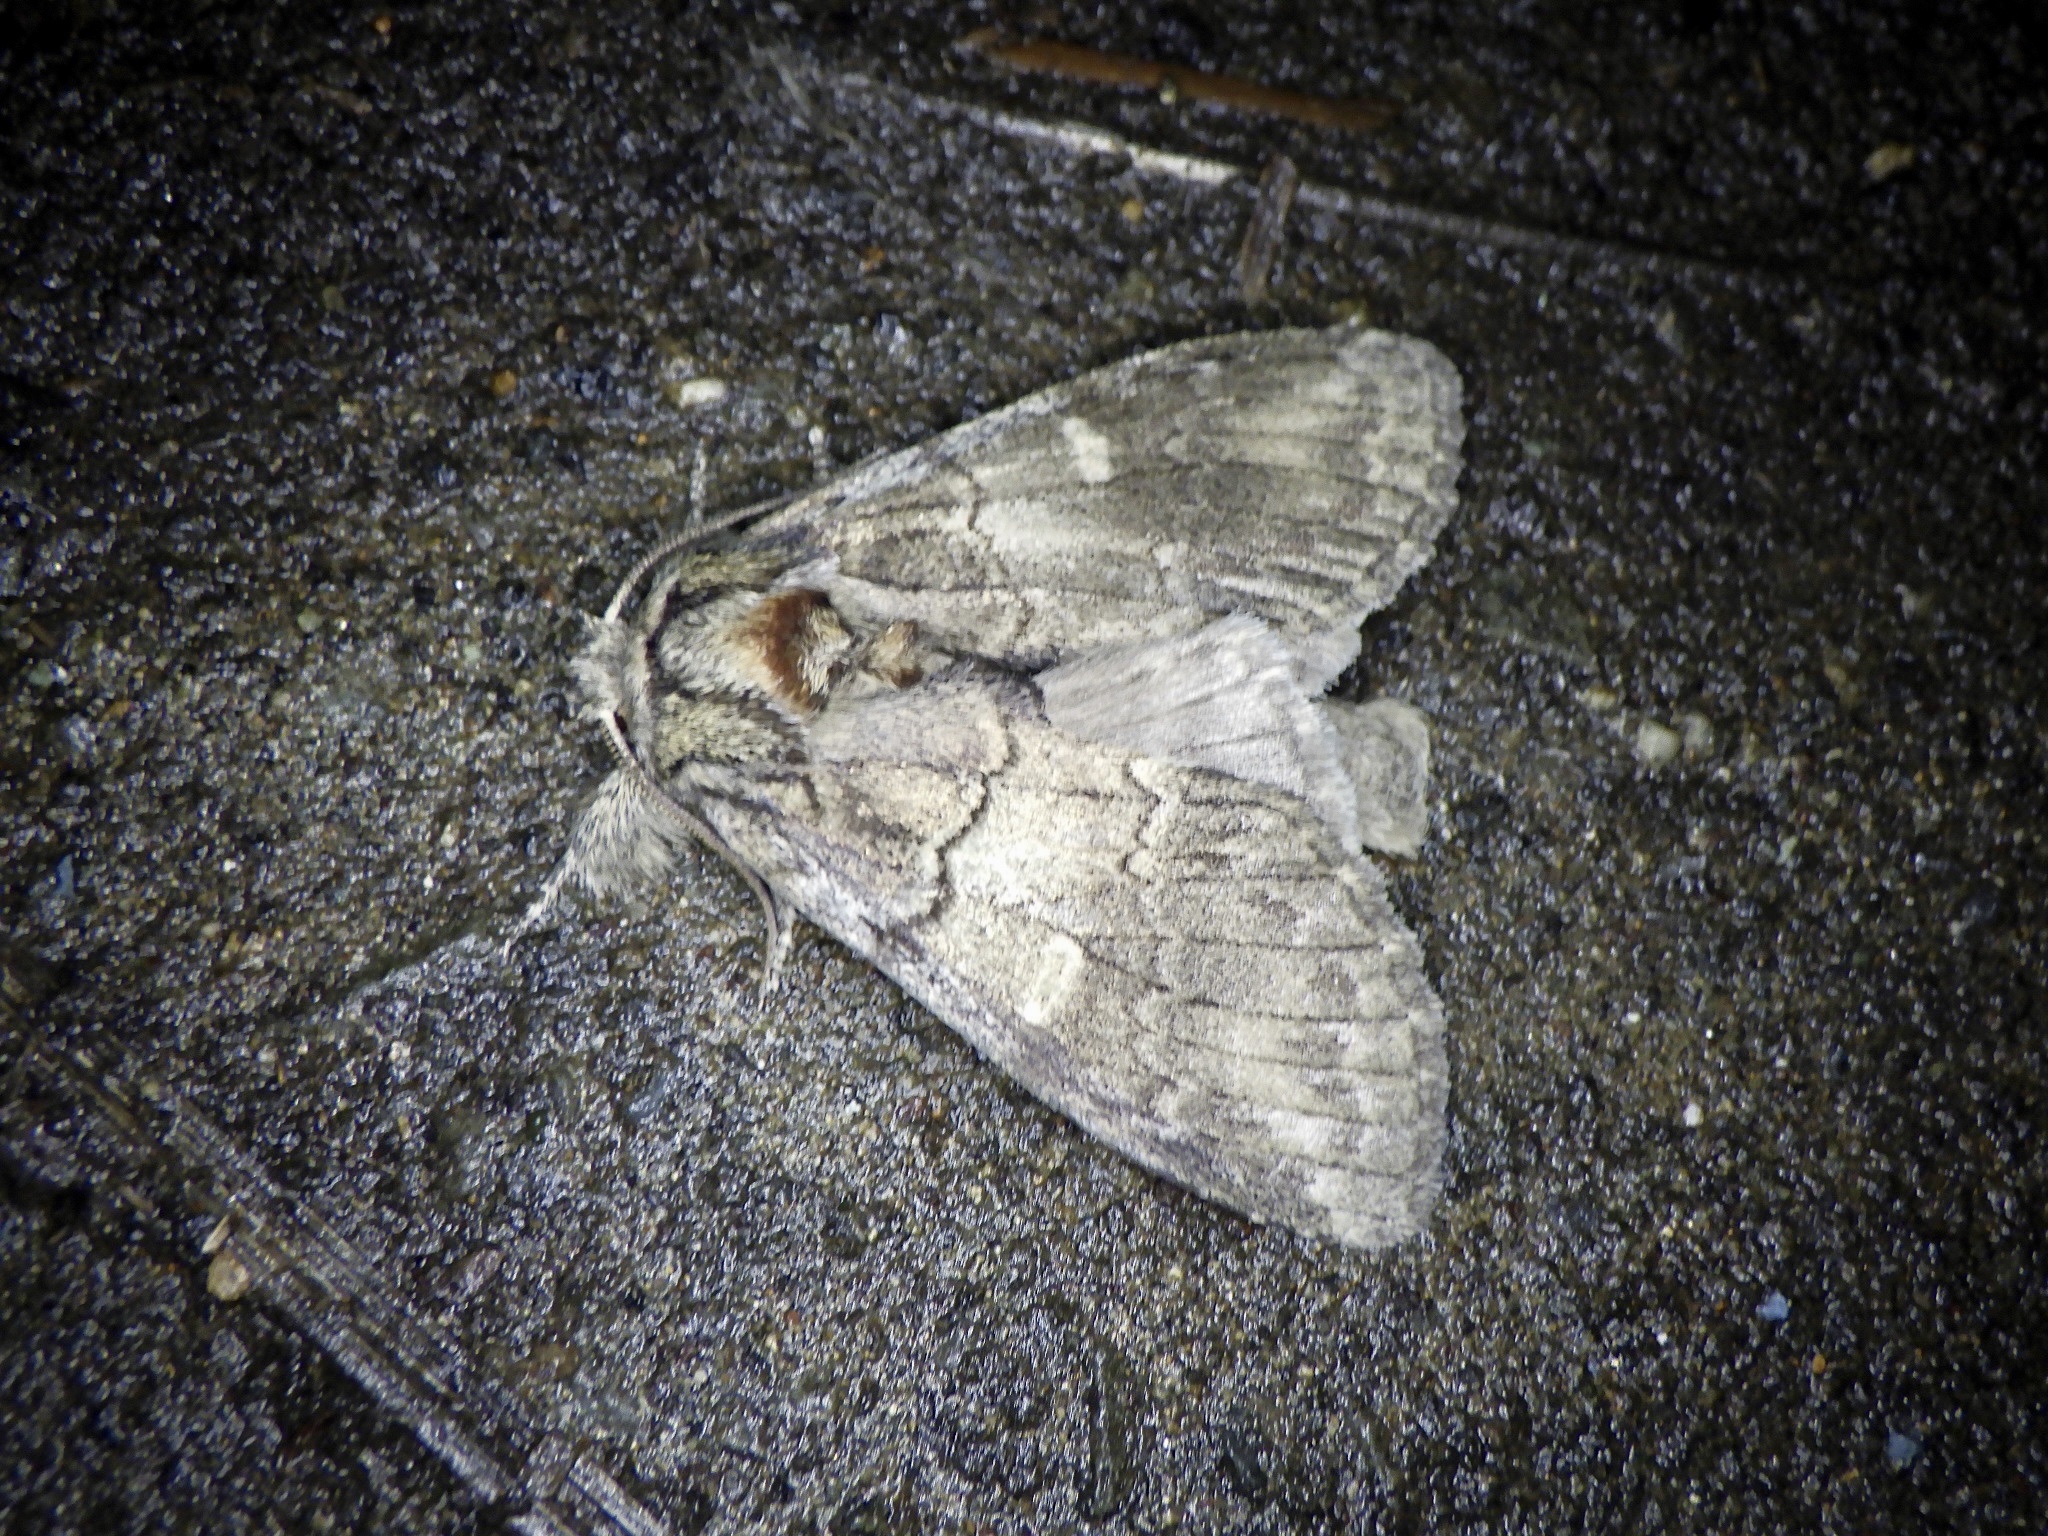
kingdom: Animalia
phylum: Arthropoda
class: Insecta
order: Lepidoptera
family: Notodontidae
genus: Peridea
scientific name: Peridea oberthueri
